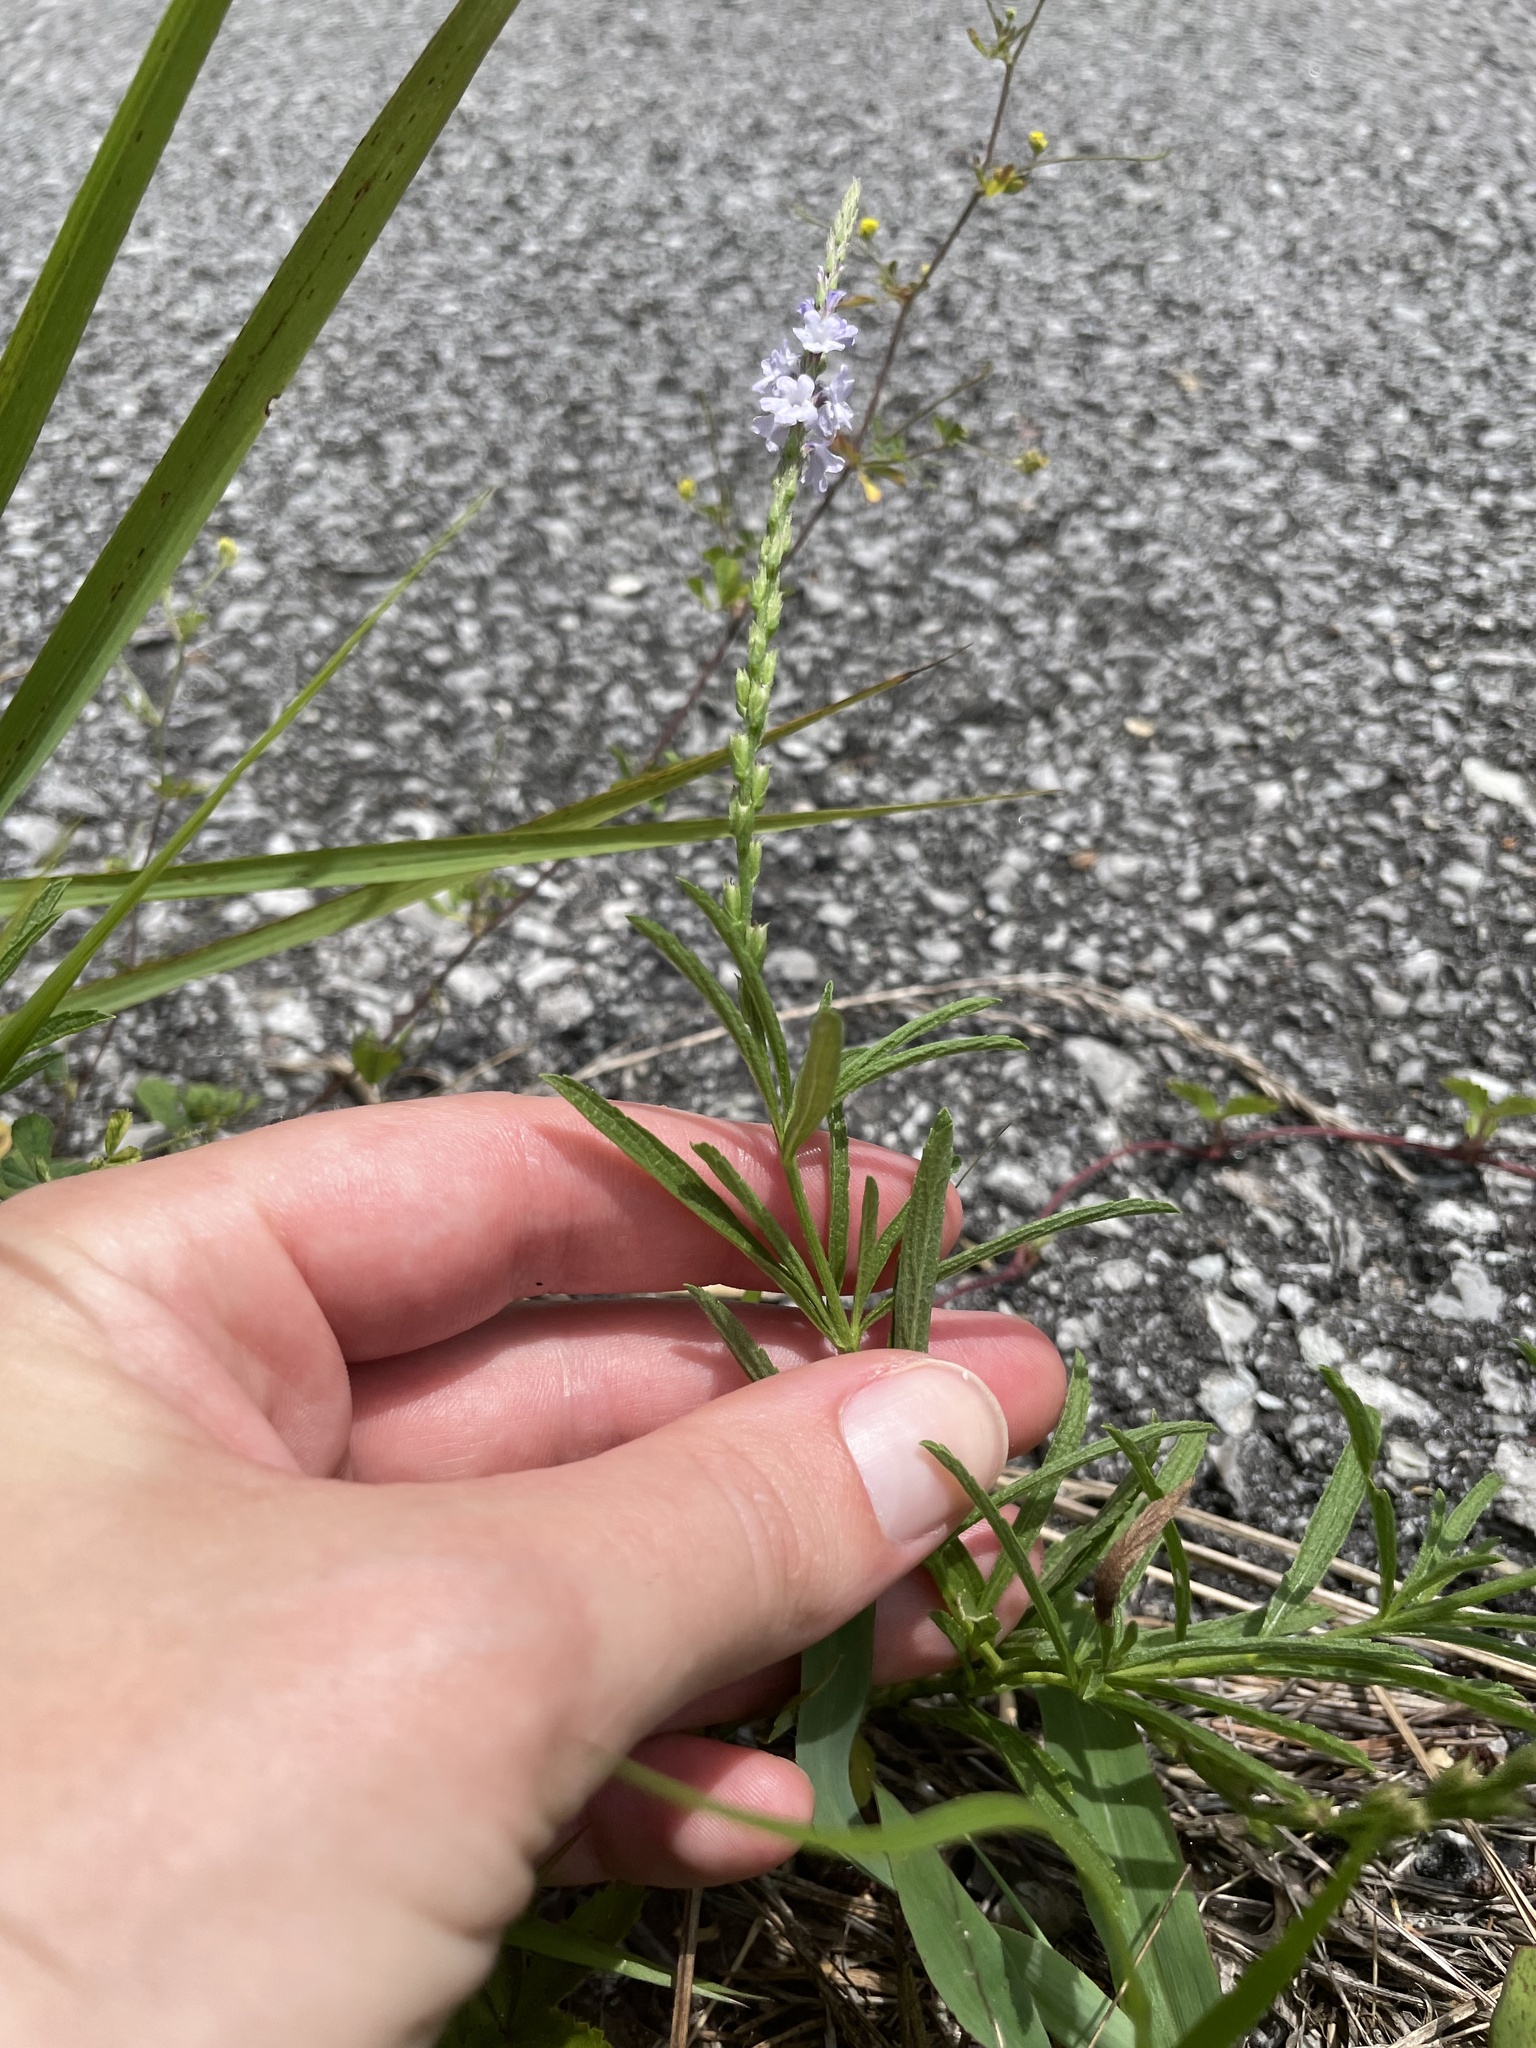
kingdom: Plantae
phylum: Tracheophyta
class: Magnoliopsida
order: Lamiales
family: Verbenaceae
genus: Verbena
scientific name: Verbena simplex
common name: Narrow-leaf vervain
